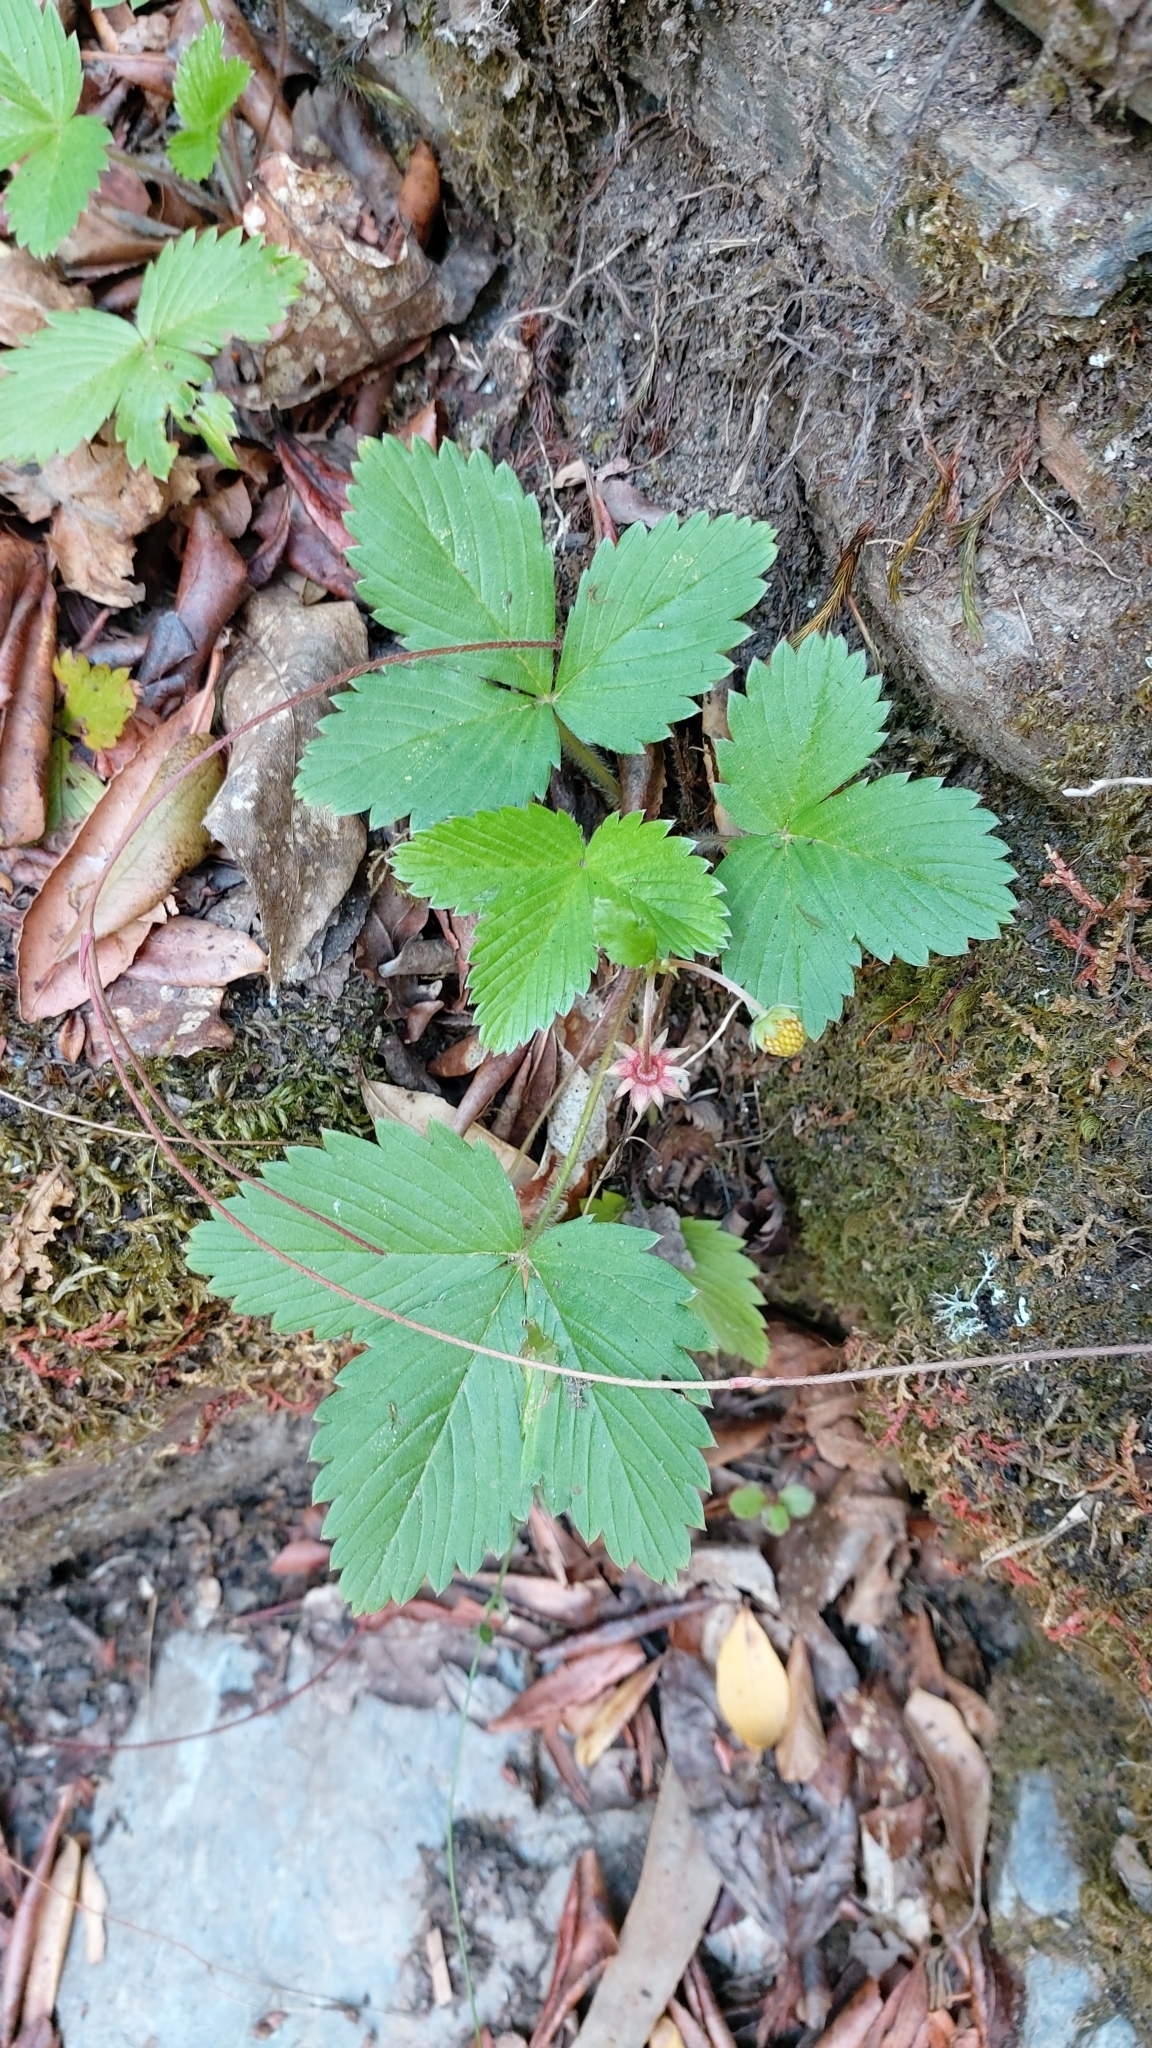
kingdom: Plantae
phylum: Tracheophyta
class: Magnoliopsida
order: Rosales
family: Rosaceae
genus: Fragaria
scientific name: Fragaria vesca
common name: Wild strawberry
